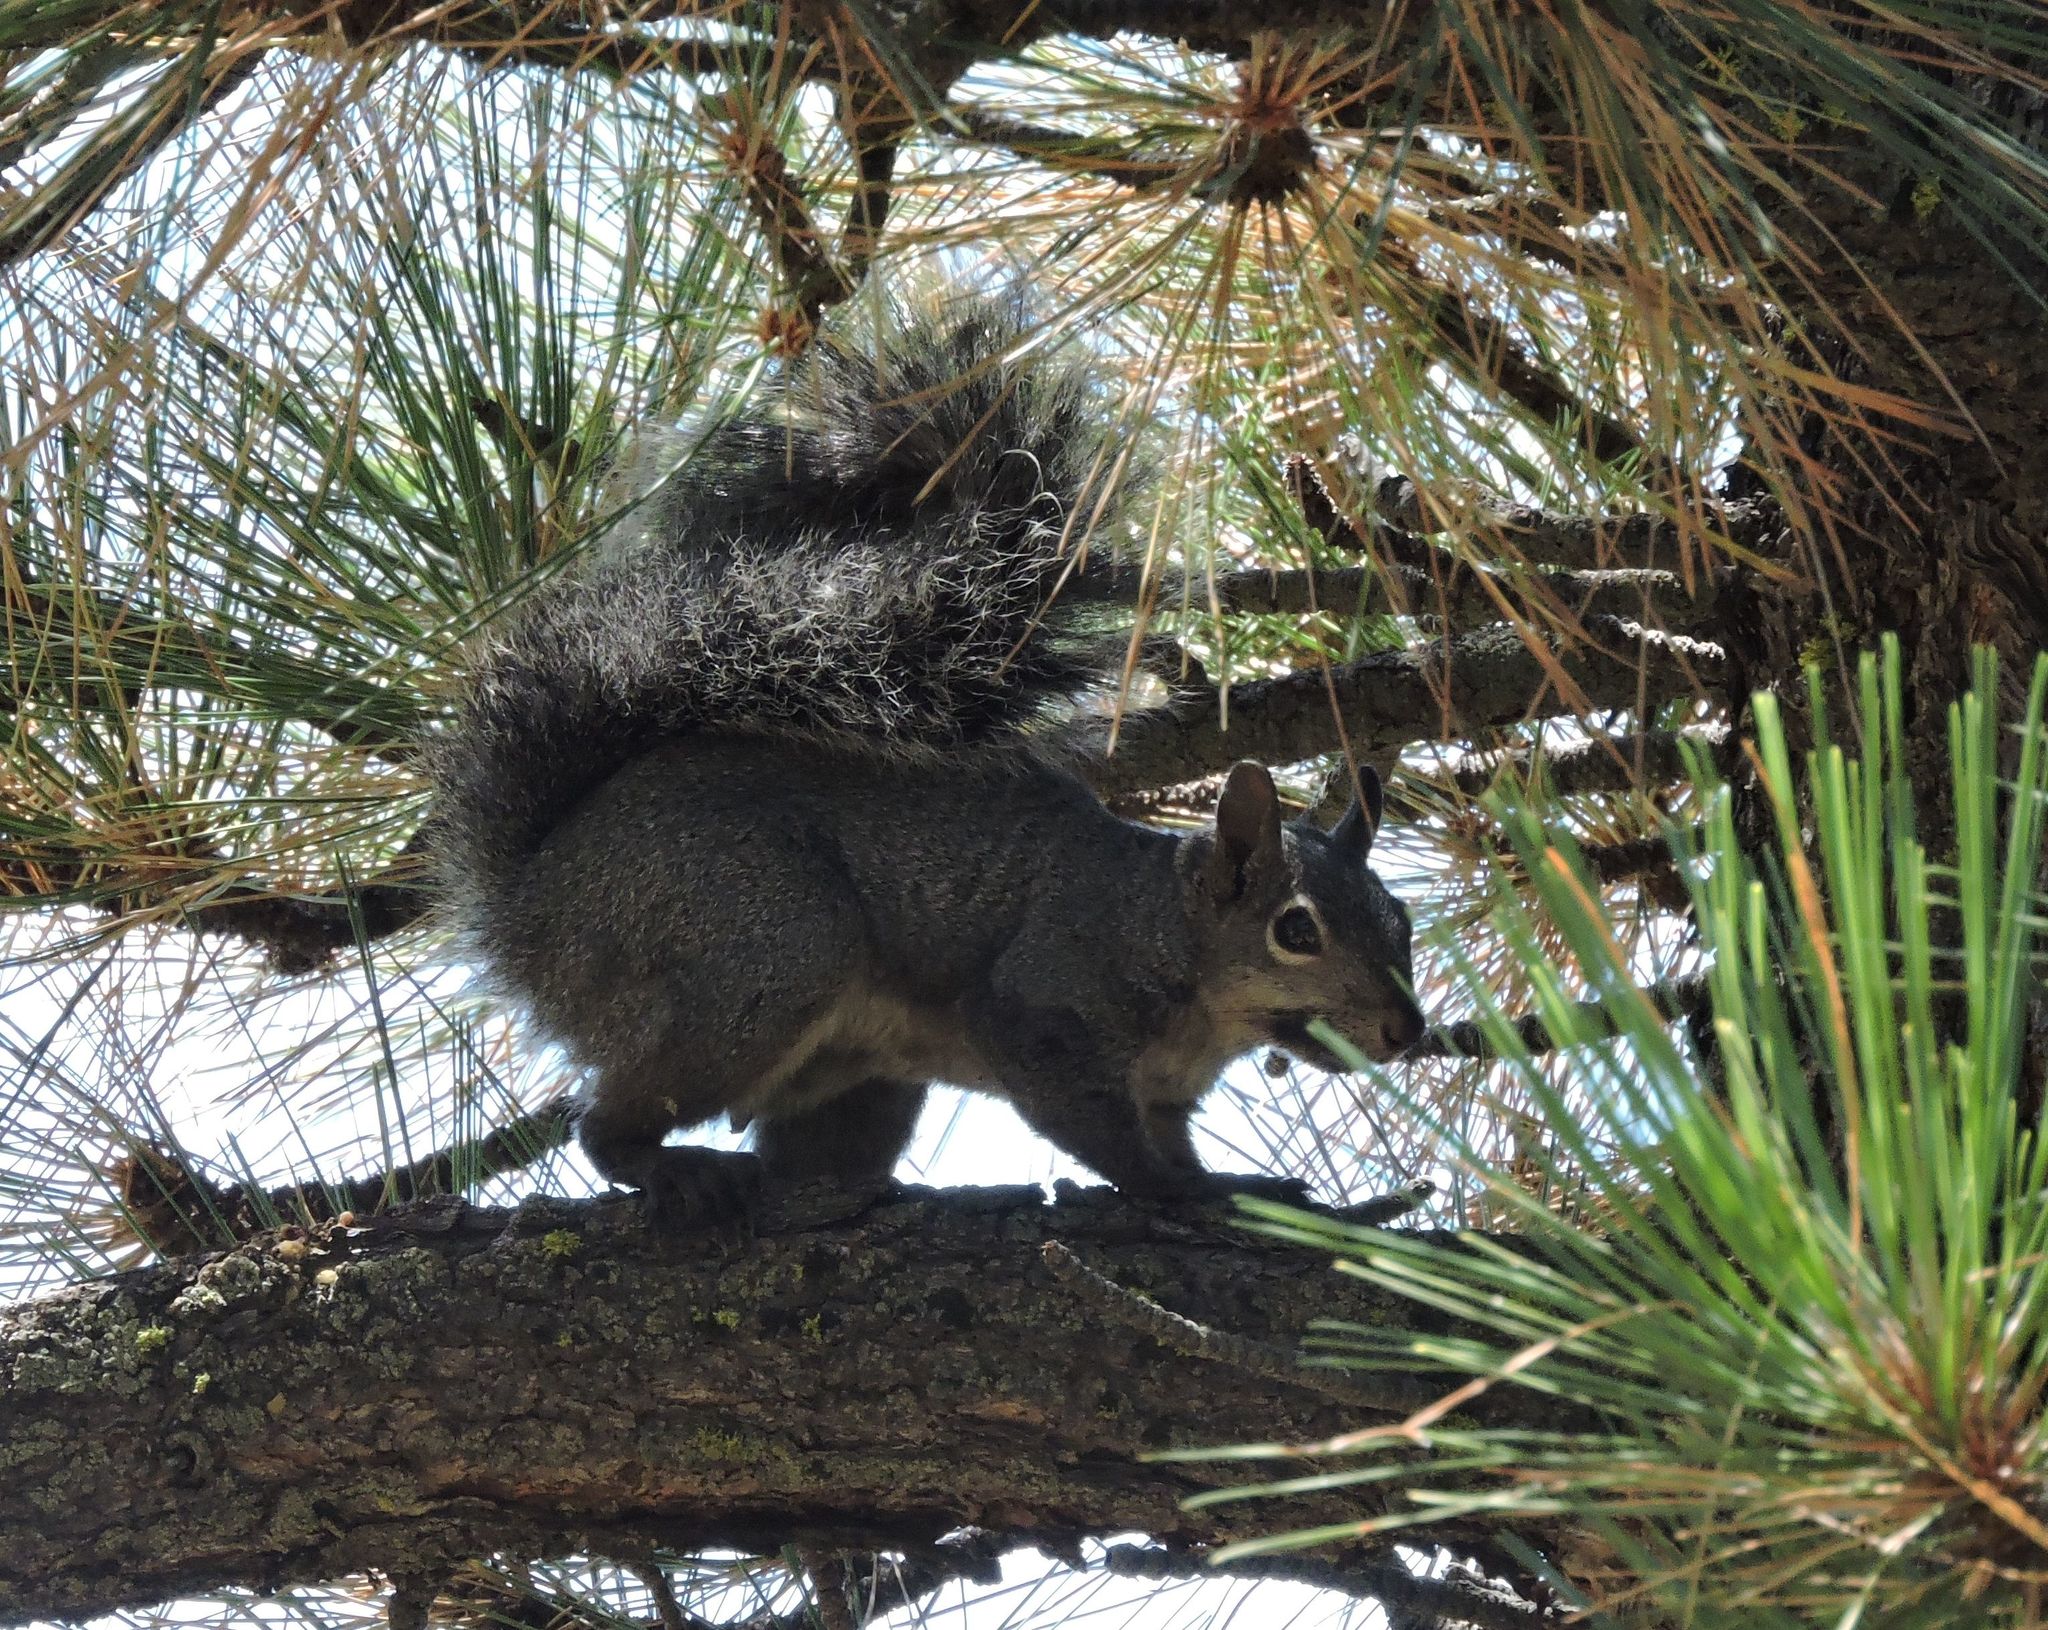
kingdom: Animalia
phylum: Chordata
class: Mammalia
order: Rodentia
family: Sciuridae
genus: Sciurus
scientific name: Sciurus griseus
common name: Western gray squirrel
